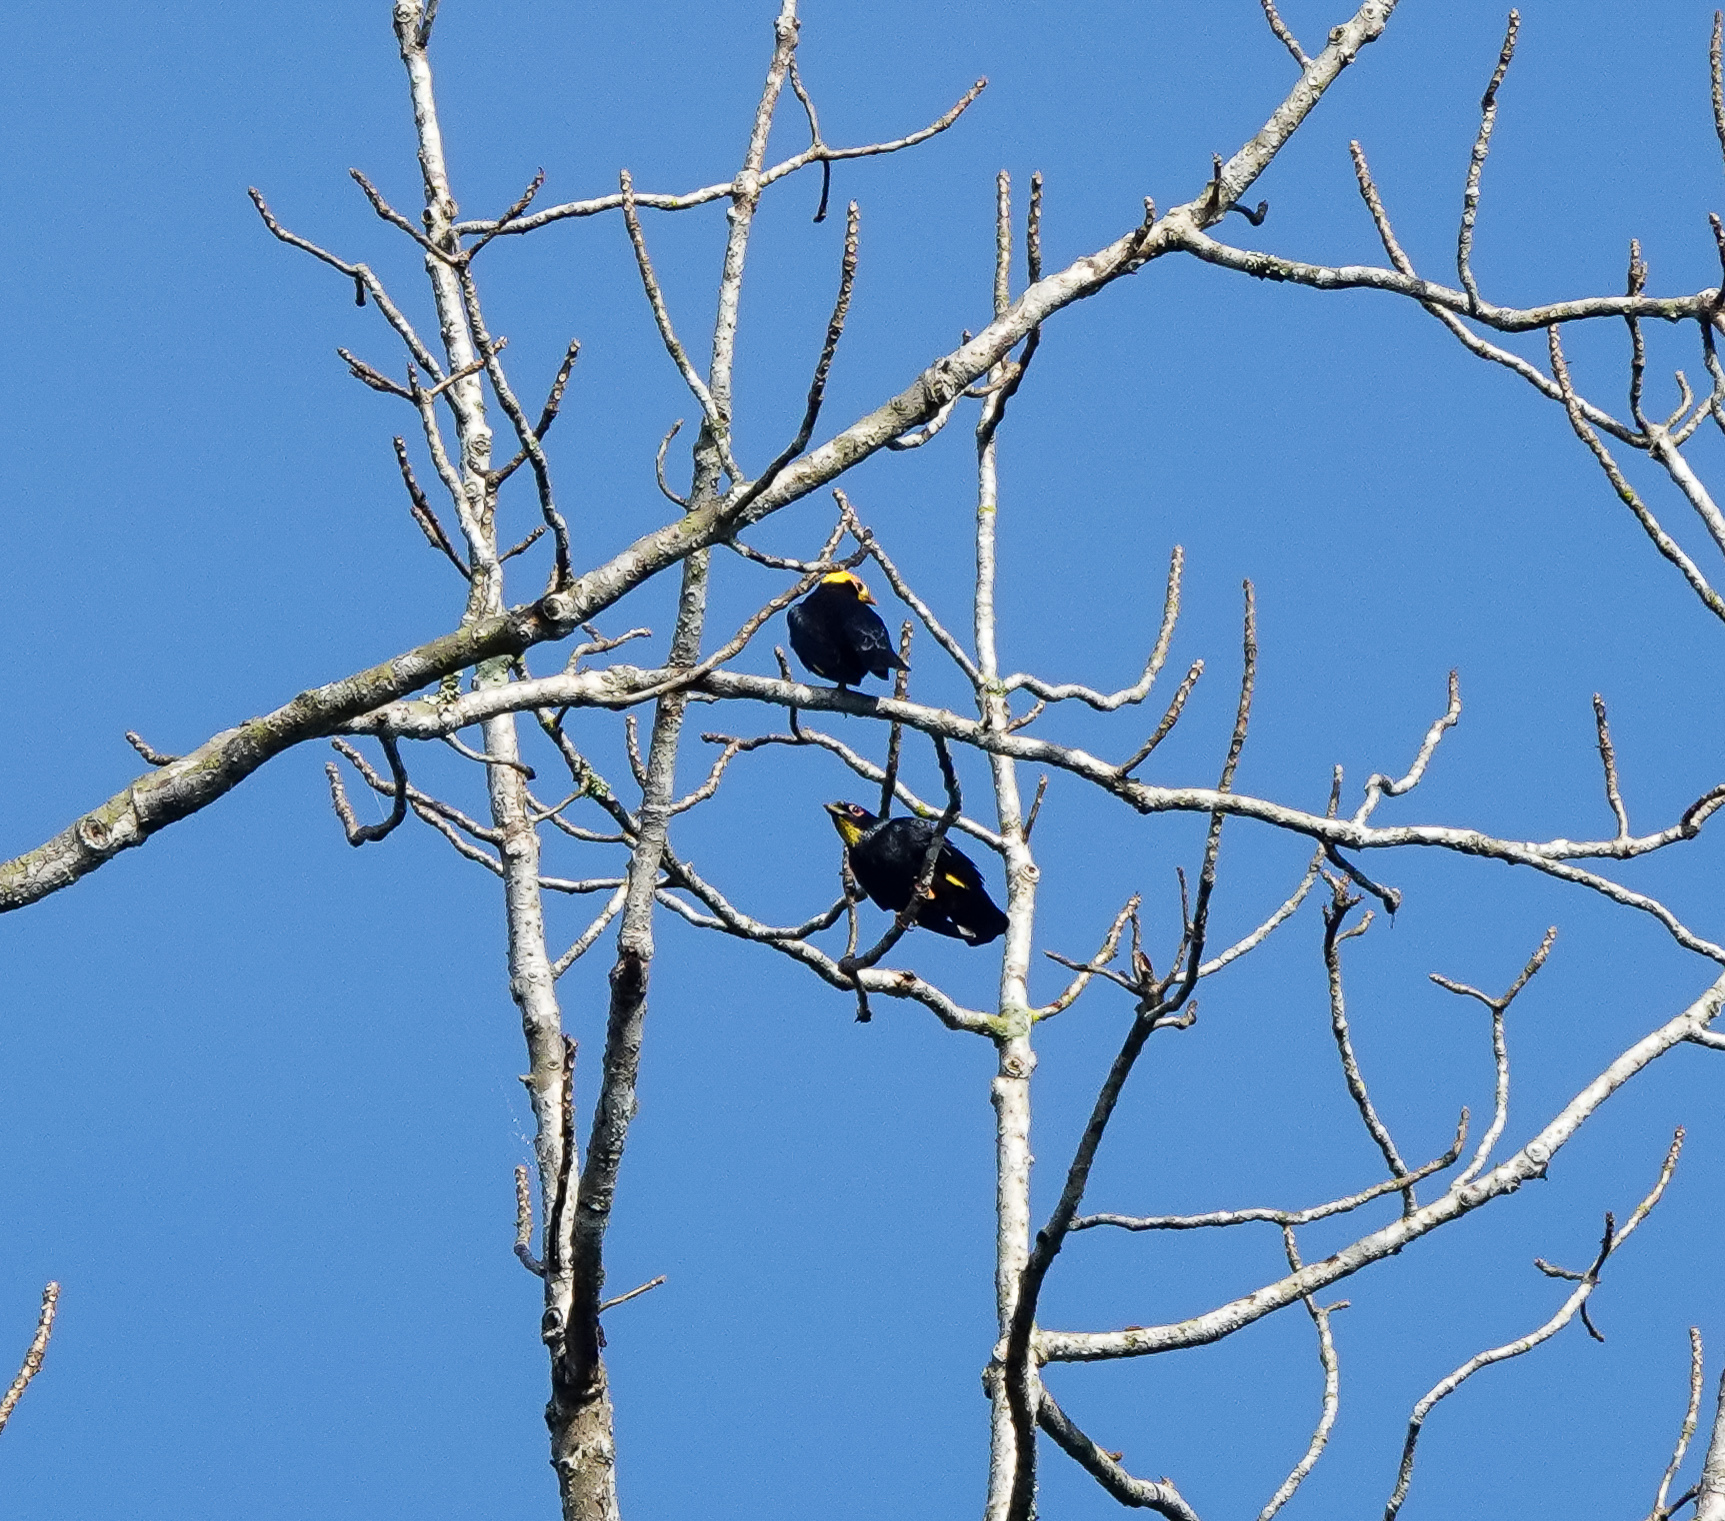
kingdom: Animalia
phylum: Chordata
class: Aves
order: Passeriformes
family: Sturnidae
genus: Ampeliceps
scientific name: Ampeliceps coronatus
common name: Golden-crested myna
